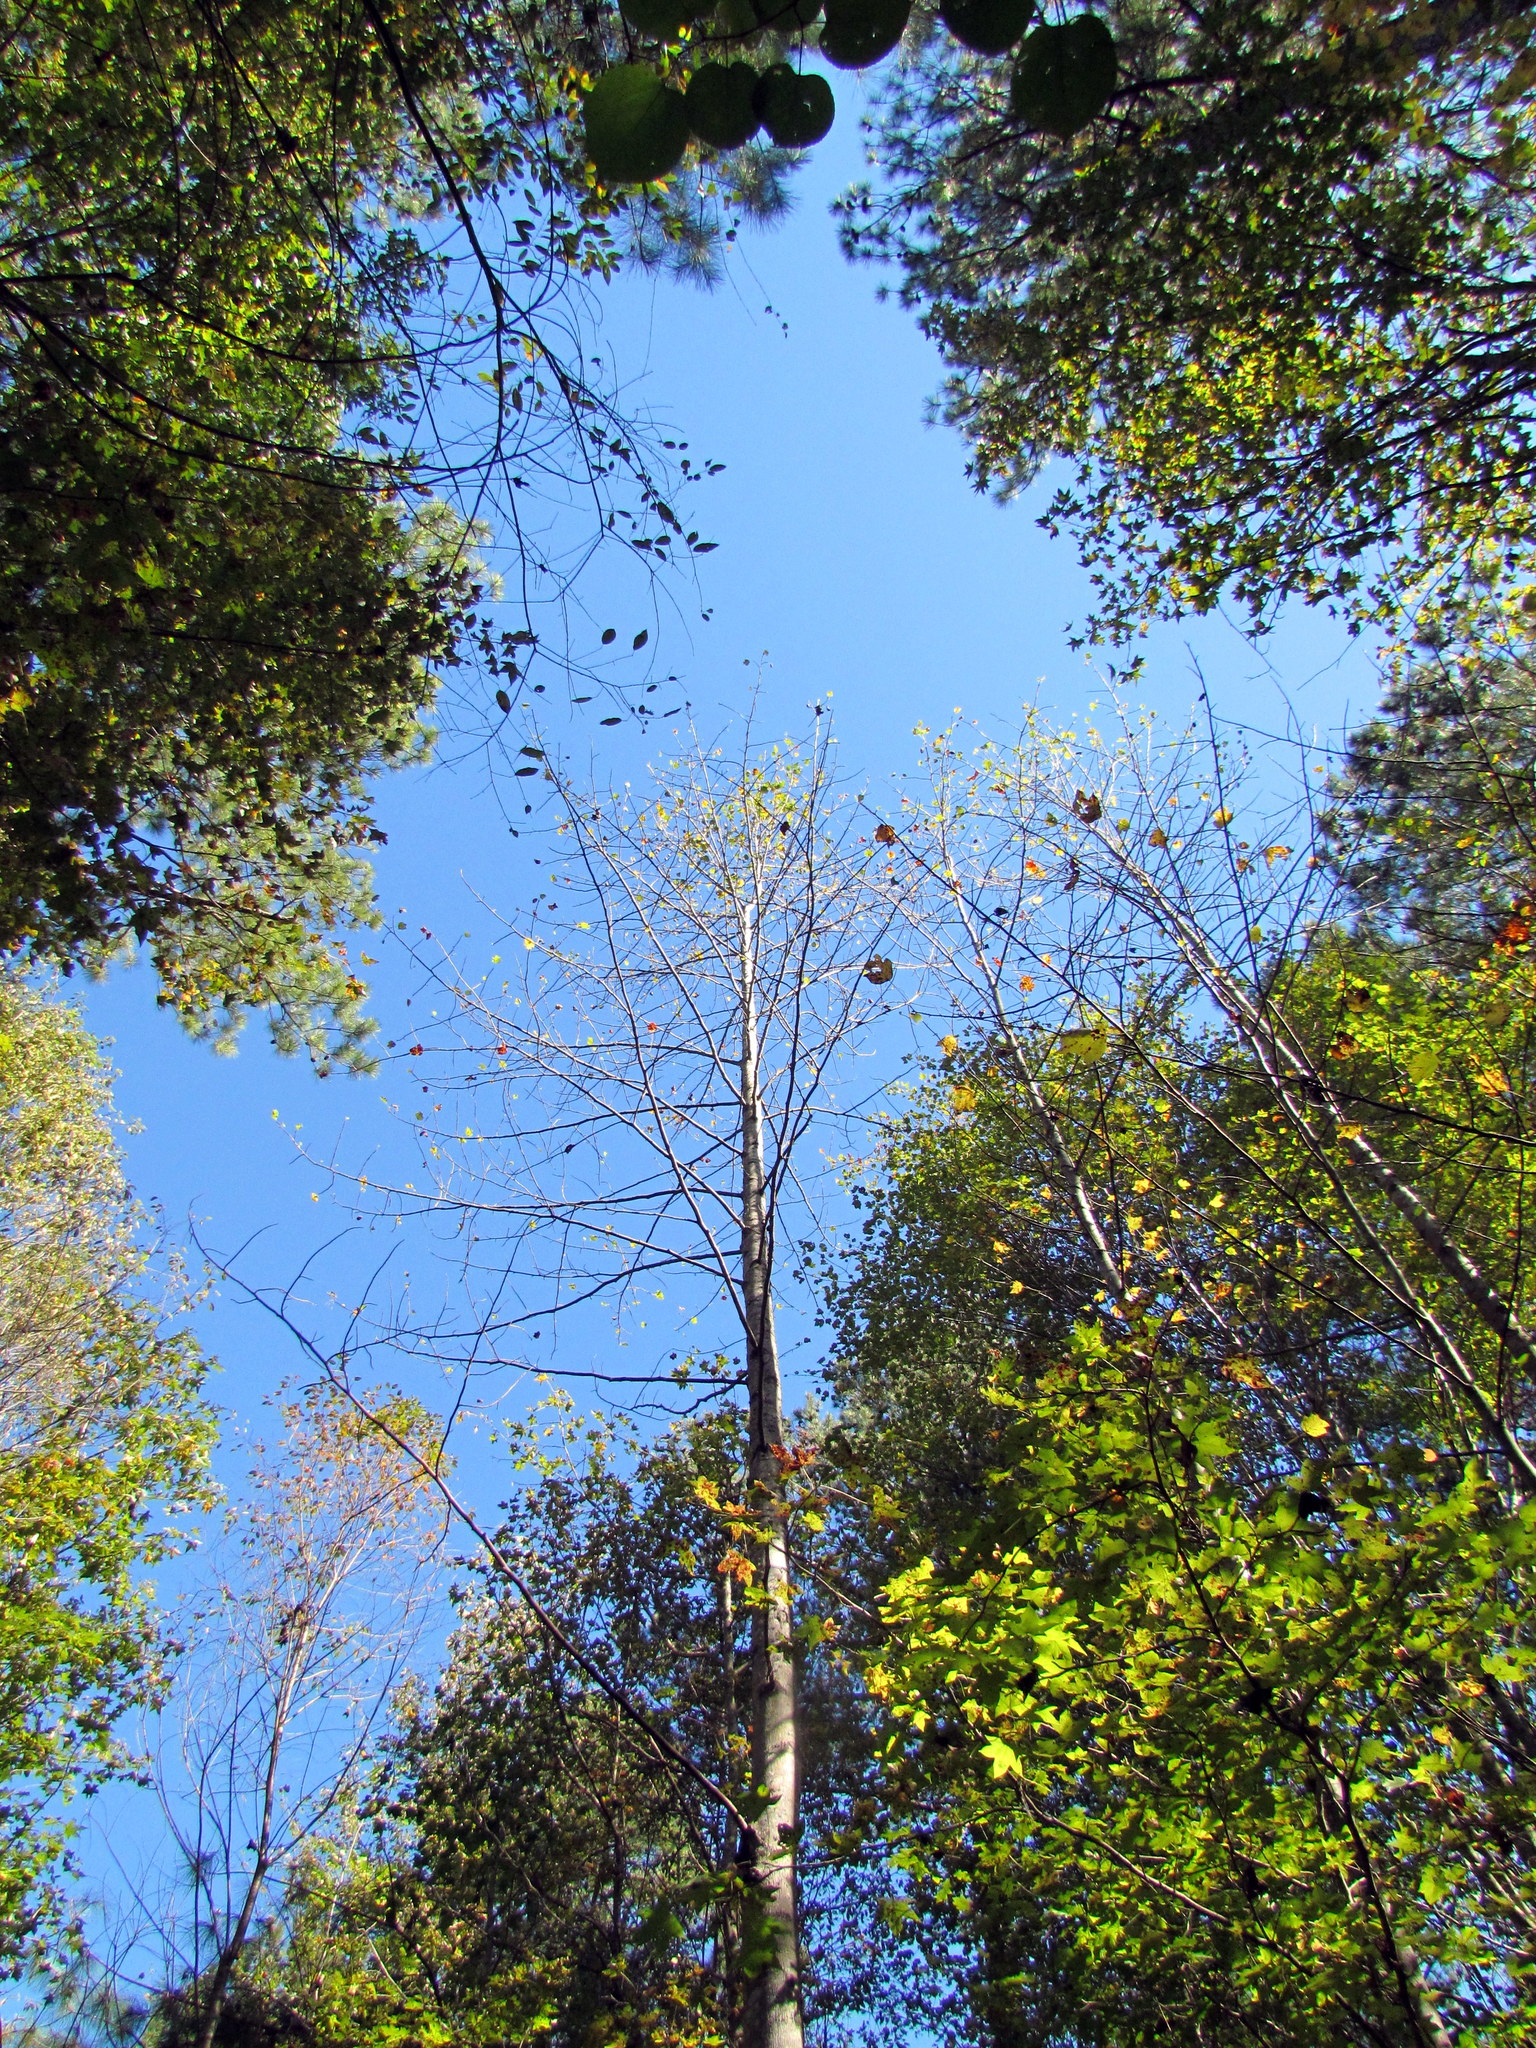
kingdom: Plantae
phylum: Tracheophyta
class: Magnoliopsida
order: Magnoliales
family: Magnoliaceae
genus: Liriodendron
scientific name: Liriodendron tulipifera
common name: Tulip tree
